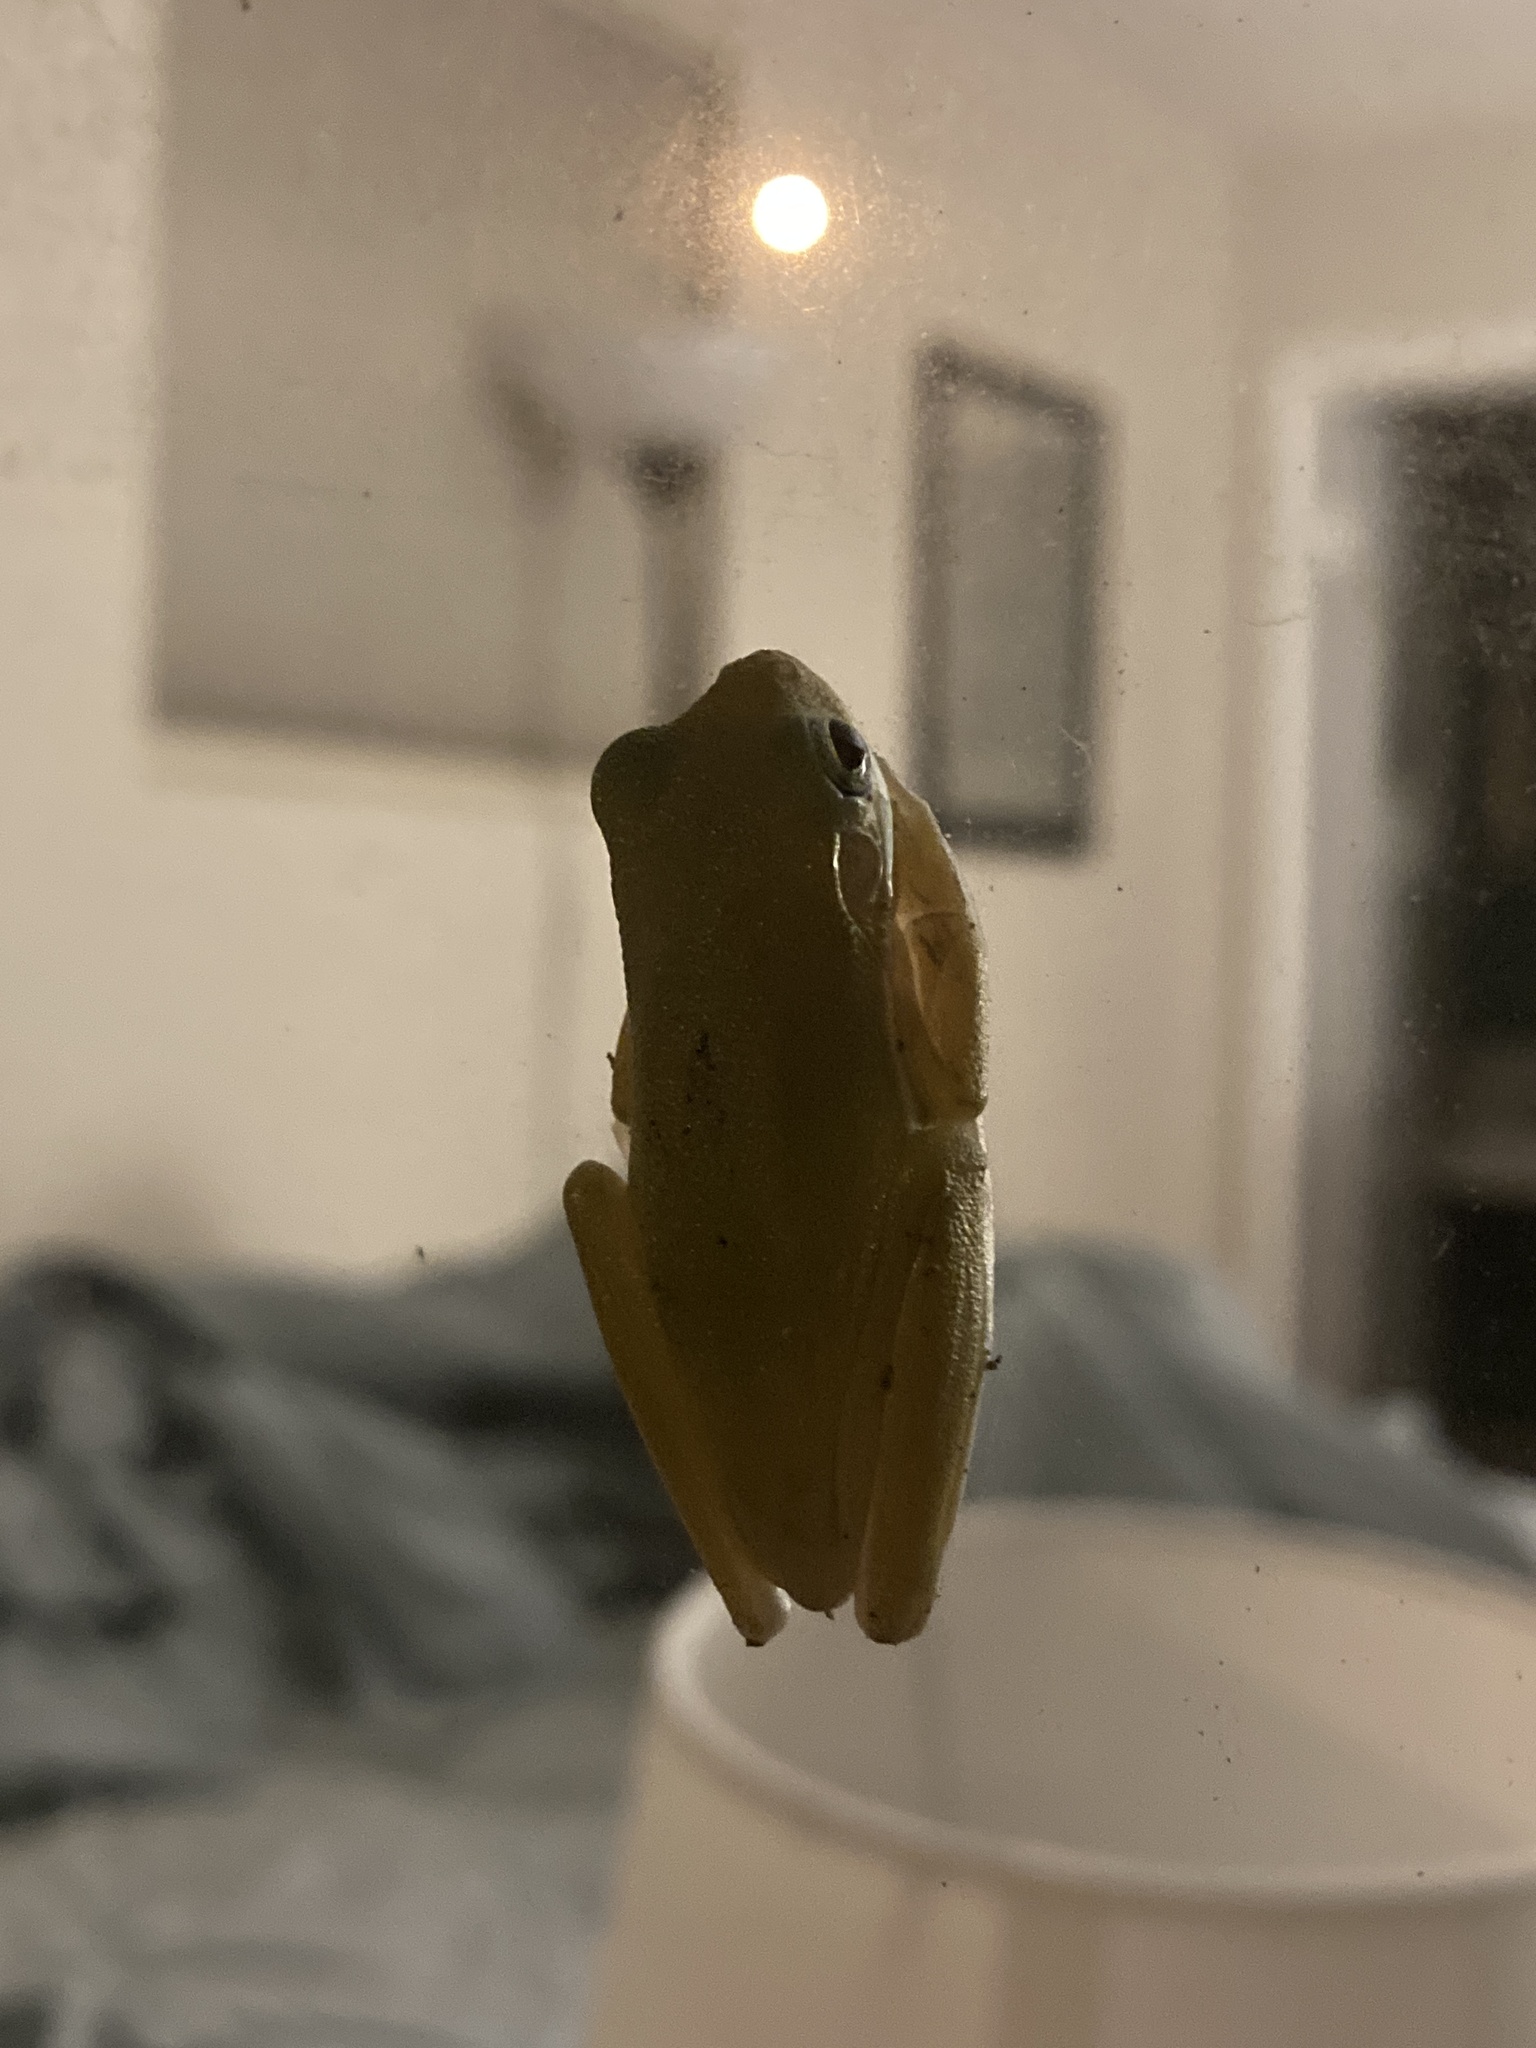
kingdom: Animalia
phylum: Chordata
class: Amphibia
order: Anura
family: Hylidae
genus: Dryophytes
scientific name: Dryophytes cinereus
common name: Green treefrog
